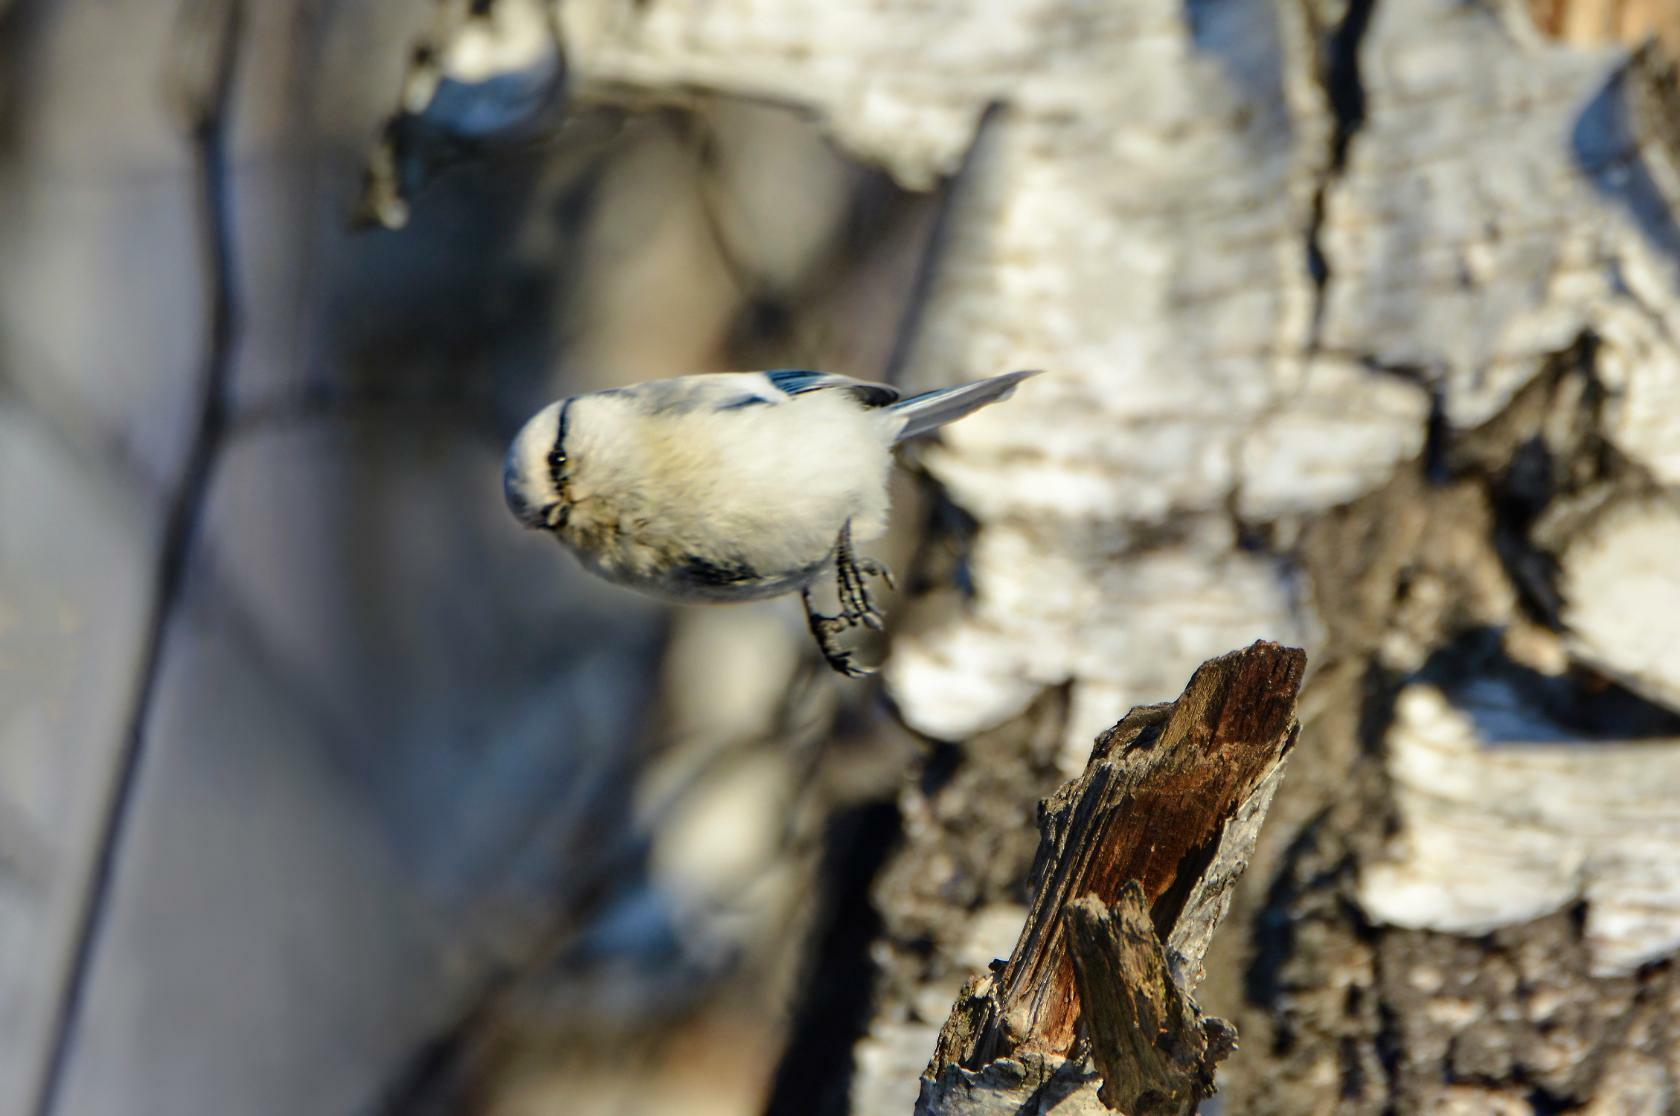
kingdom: Animalia
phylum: Chordata
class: Aves
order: Passeriformes
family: Paridae
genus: Cyanistes
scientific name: Cyanistes cyanus
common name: Azure tit
